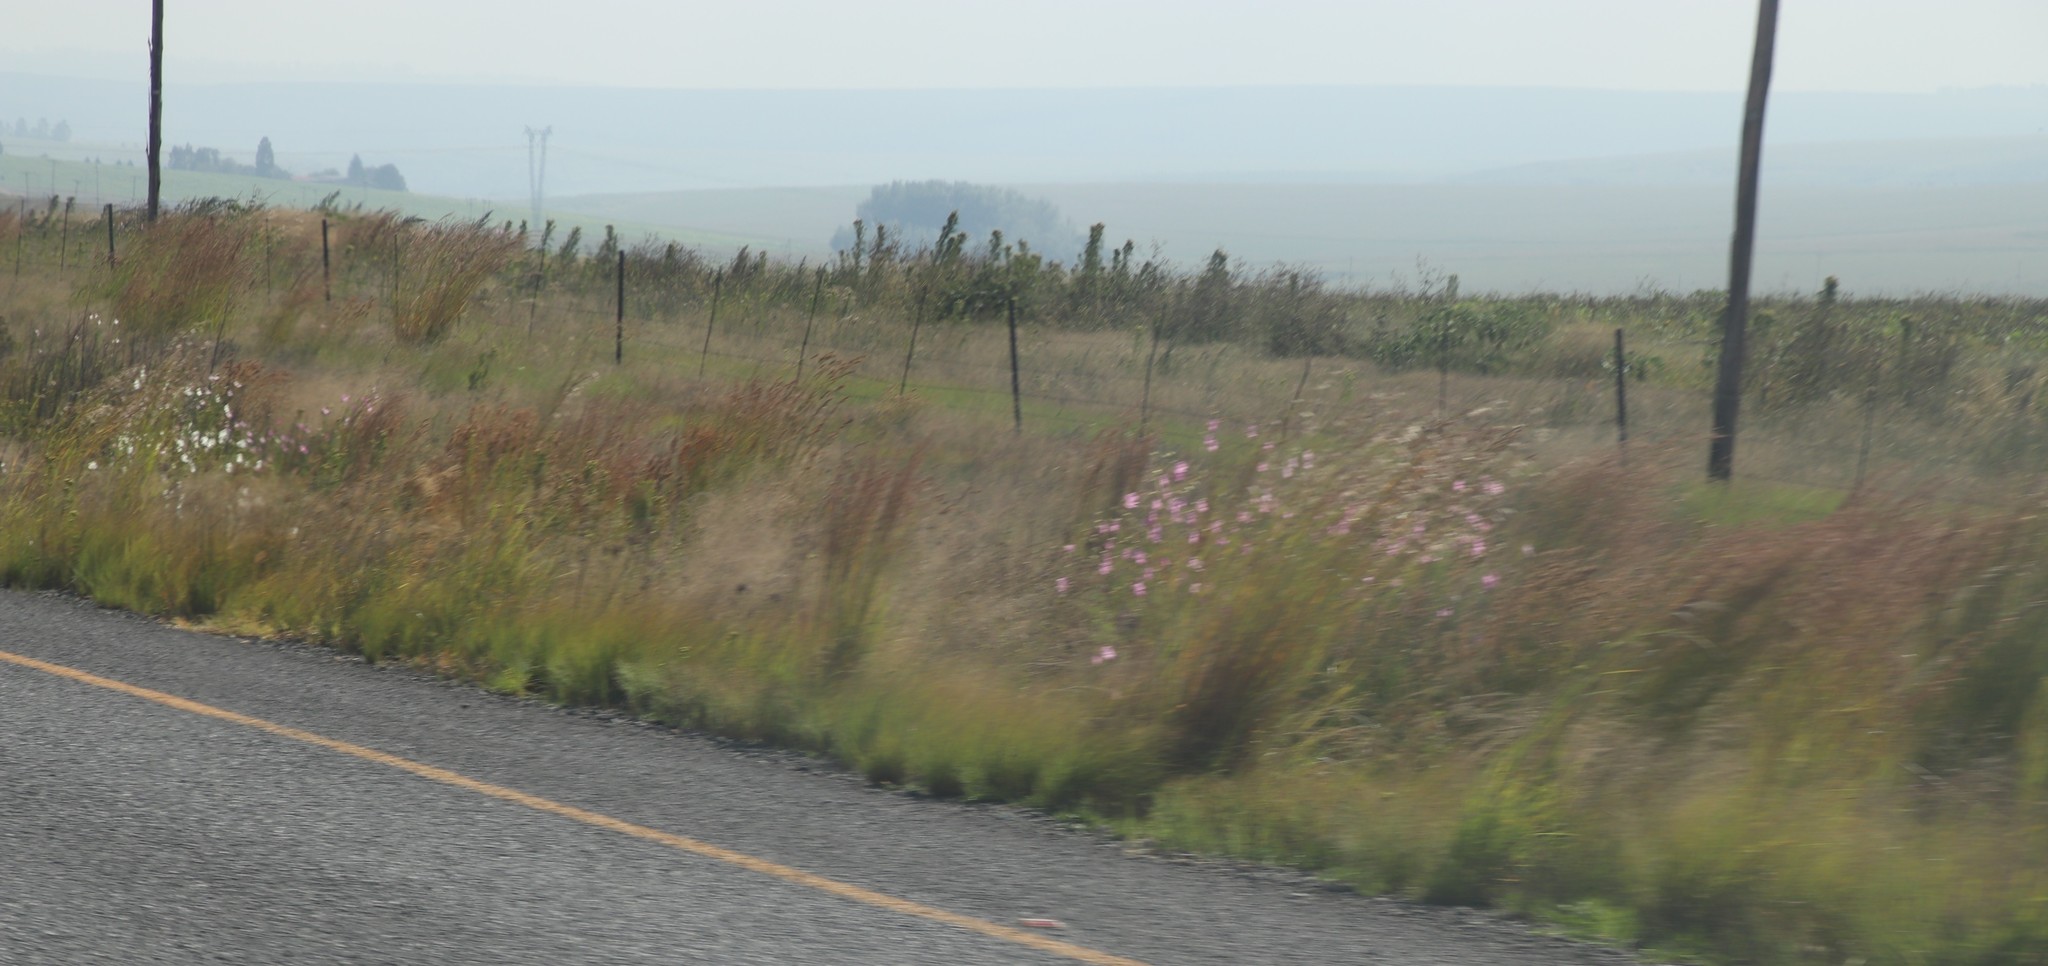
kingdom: Plantae
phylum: Tracheophyta
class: Magnoliopsida
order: Asterales
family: Asteraceae
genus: Cosmos
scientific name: Cosmos bipinnatus
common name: Garden cosmos
